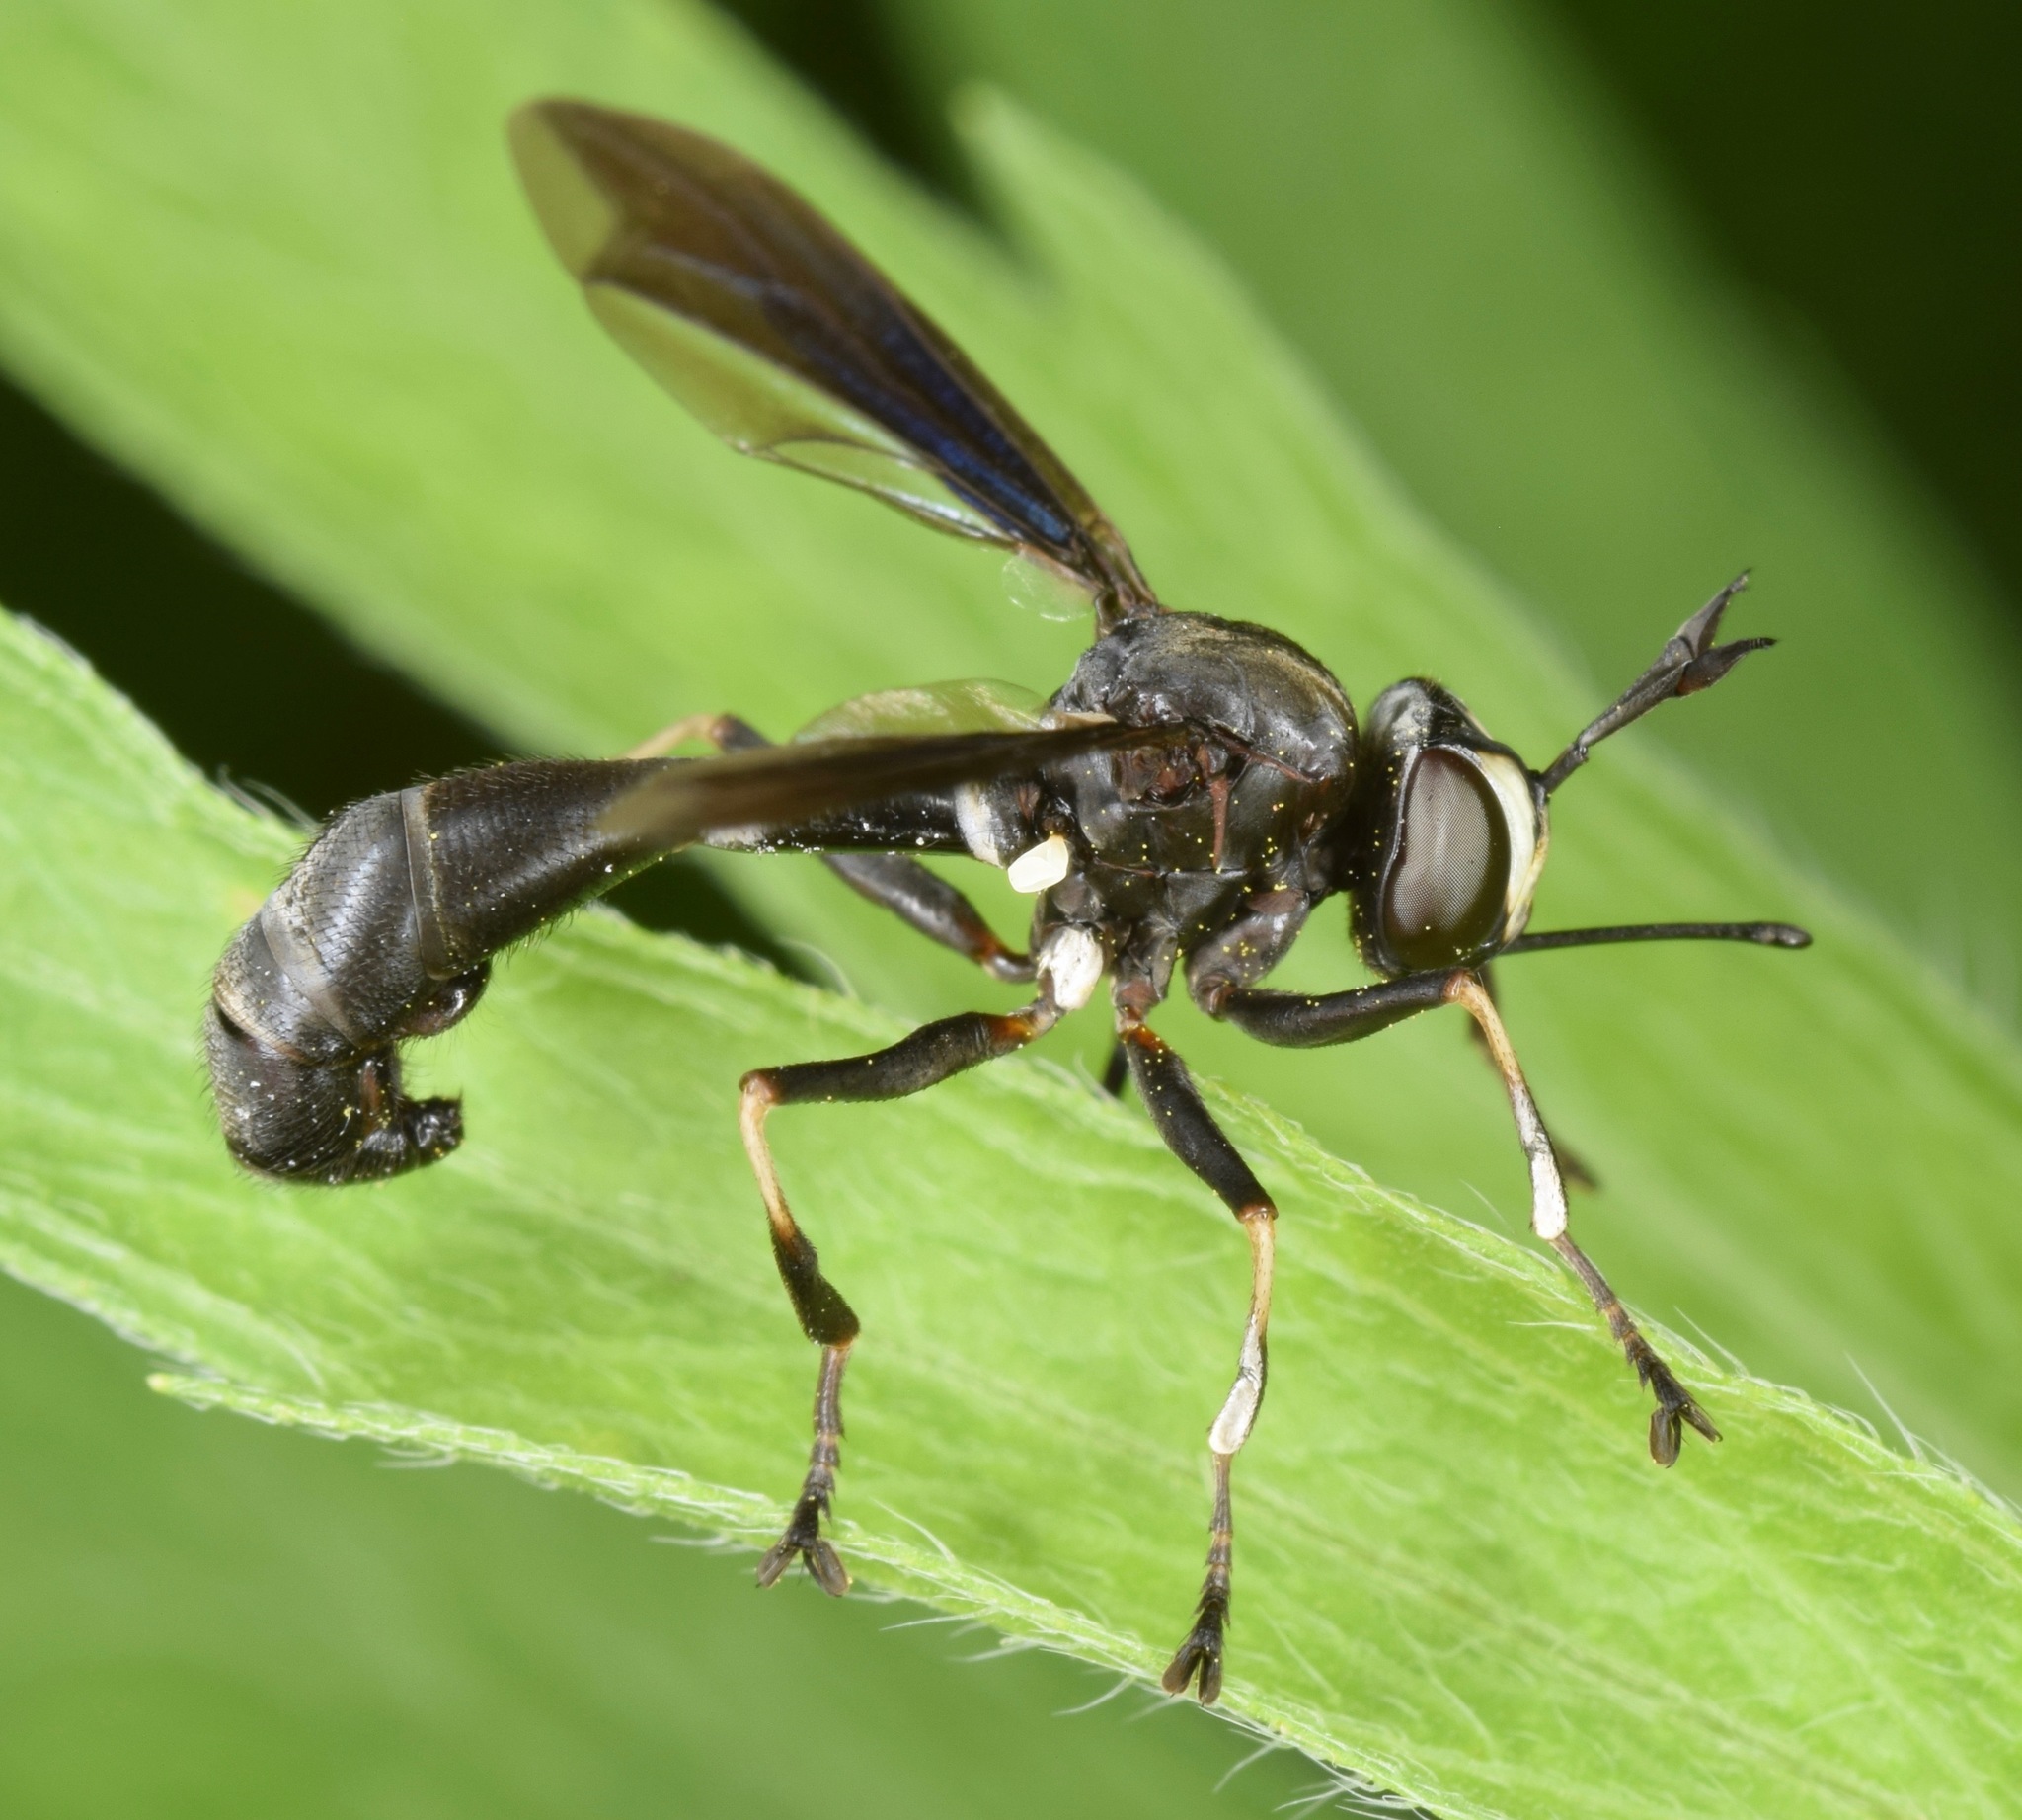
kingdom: Animalia
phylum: Arthropoda
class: Insecta
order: Diptera
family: Conopidae
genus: Physocephala
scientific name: Physocephala tibialis
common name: Common eastern physocephala
